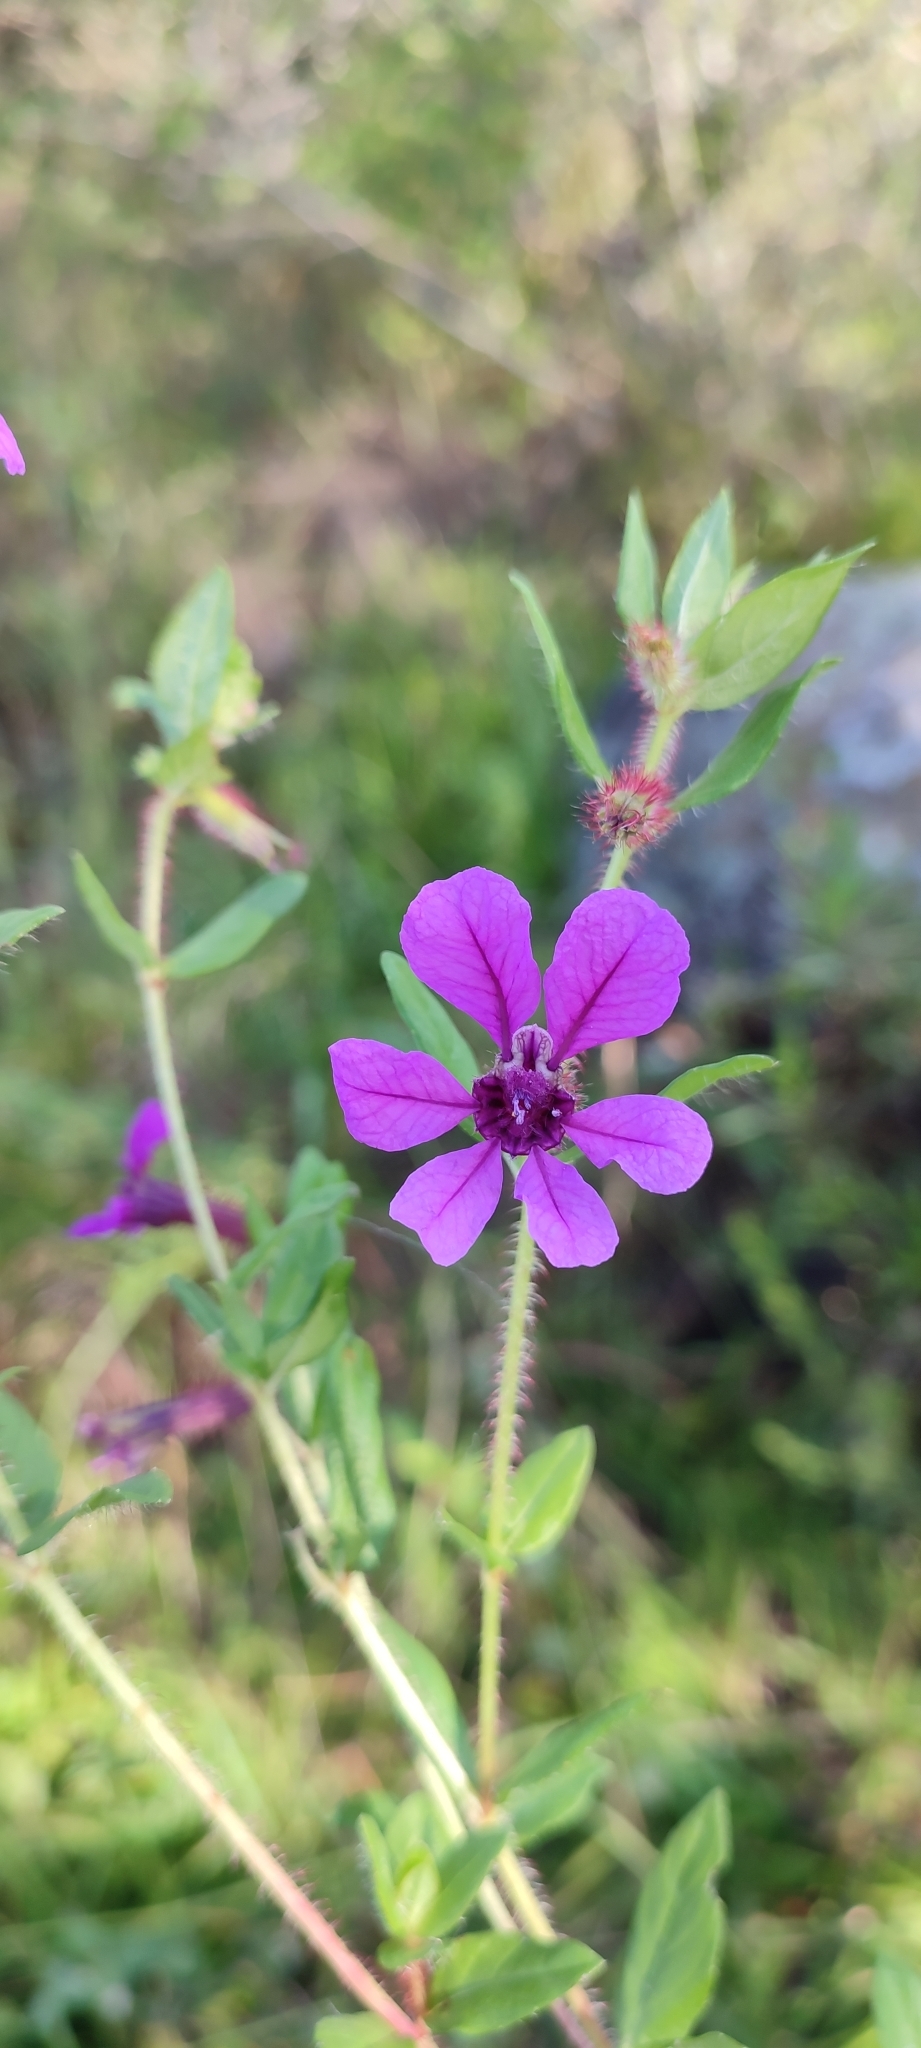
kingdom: Plantae
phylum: Tracheophyta
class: Magnoliopsida
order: Myrtales
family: Lythraceae
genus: Cuphea
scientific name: Cuphea humifusa
